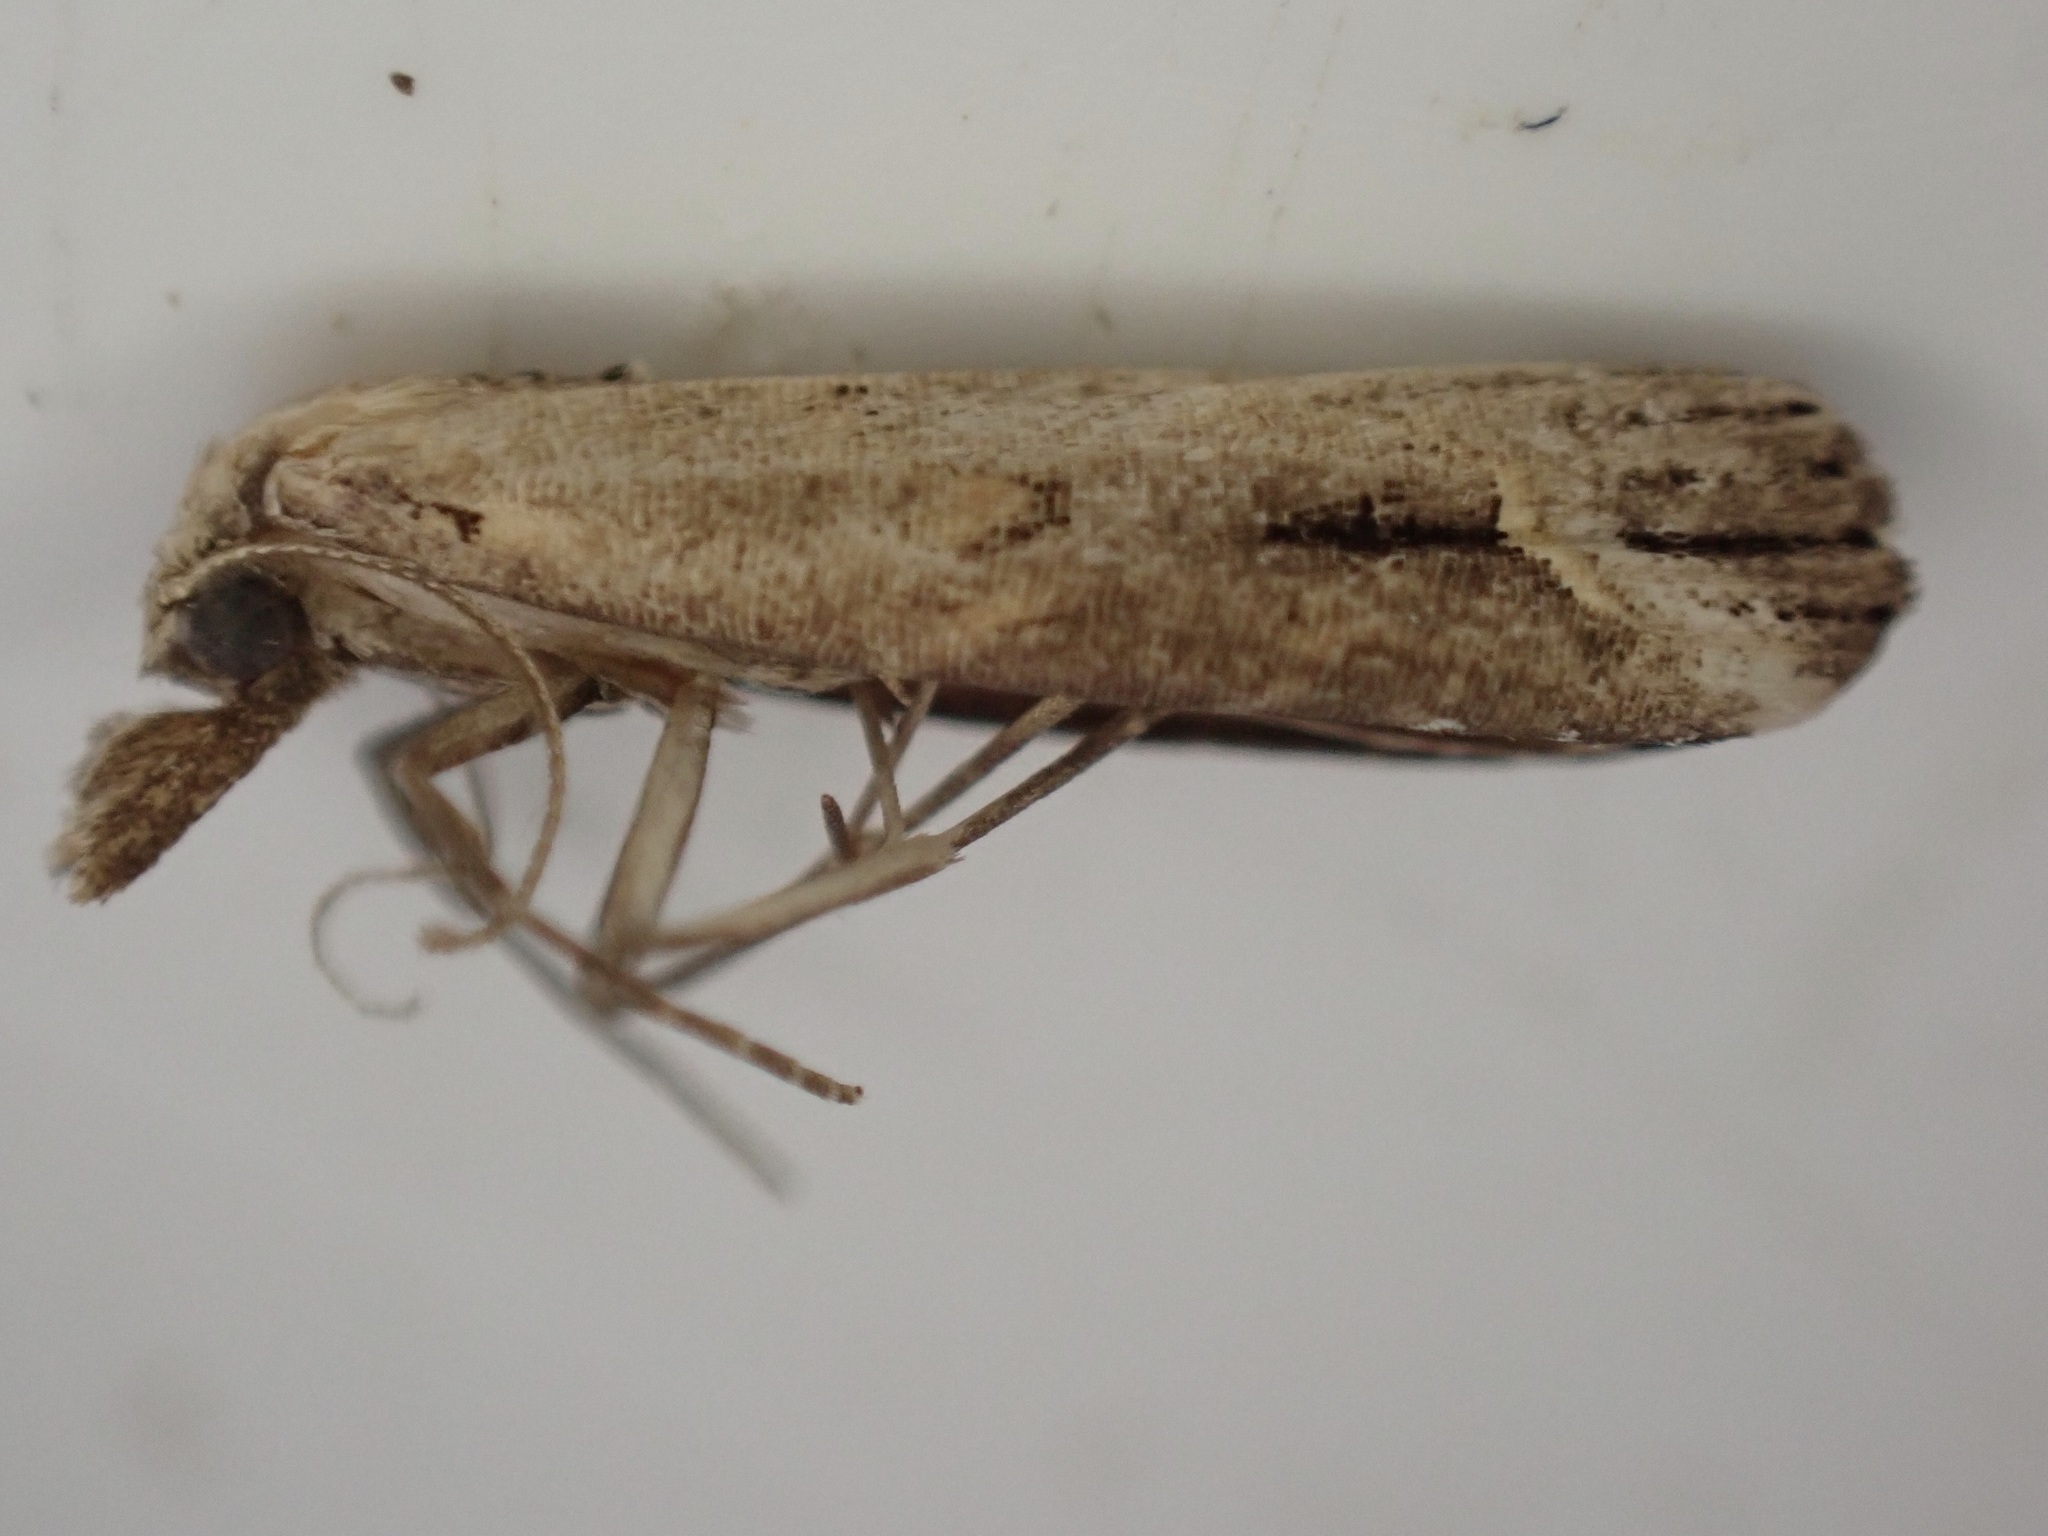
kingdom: Animalia
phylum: Arthropoda
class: Insecta
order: Lepidoptera
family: Erebidae
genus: Schrankia
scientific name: Schrankia costaestrigalis
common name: Pinion-streaked snout
